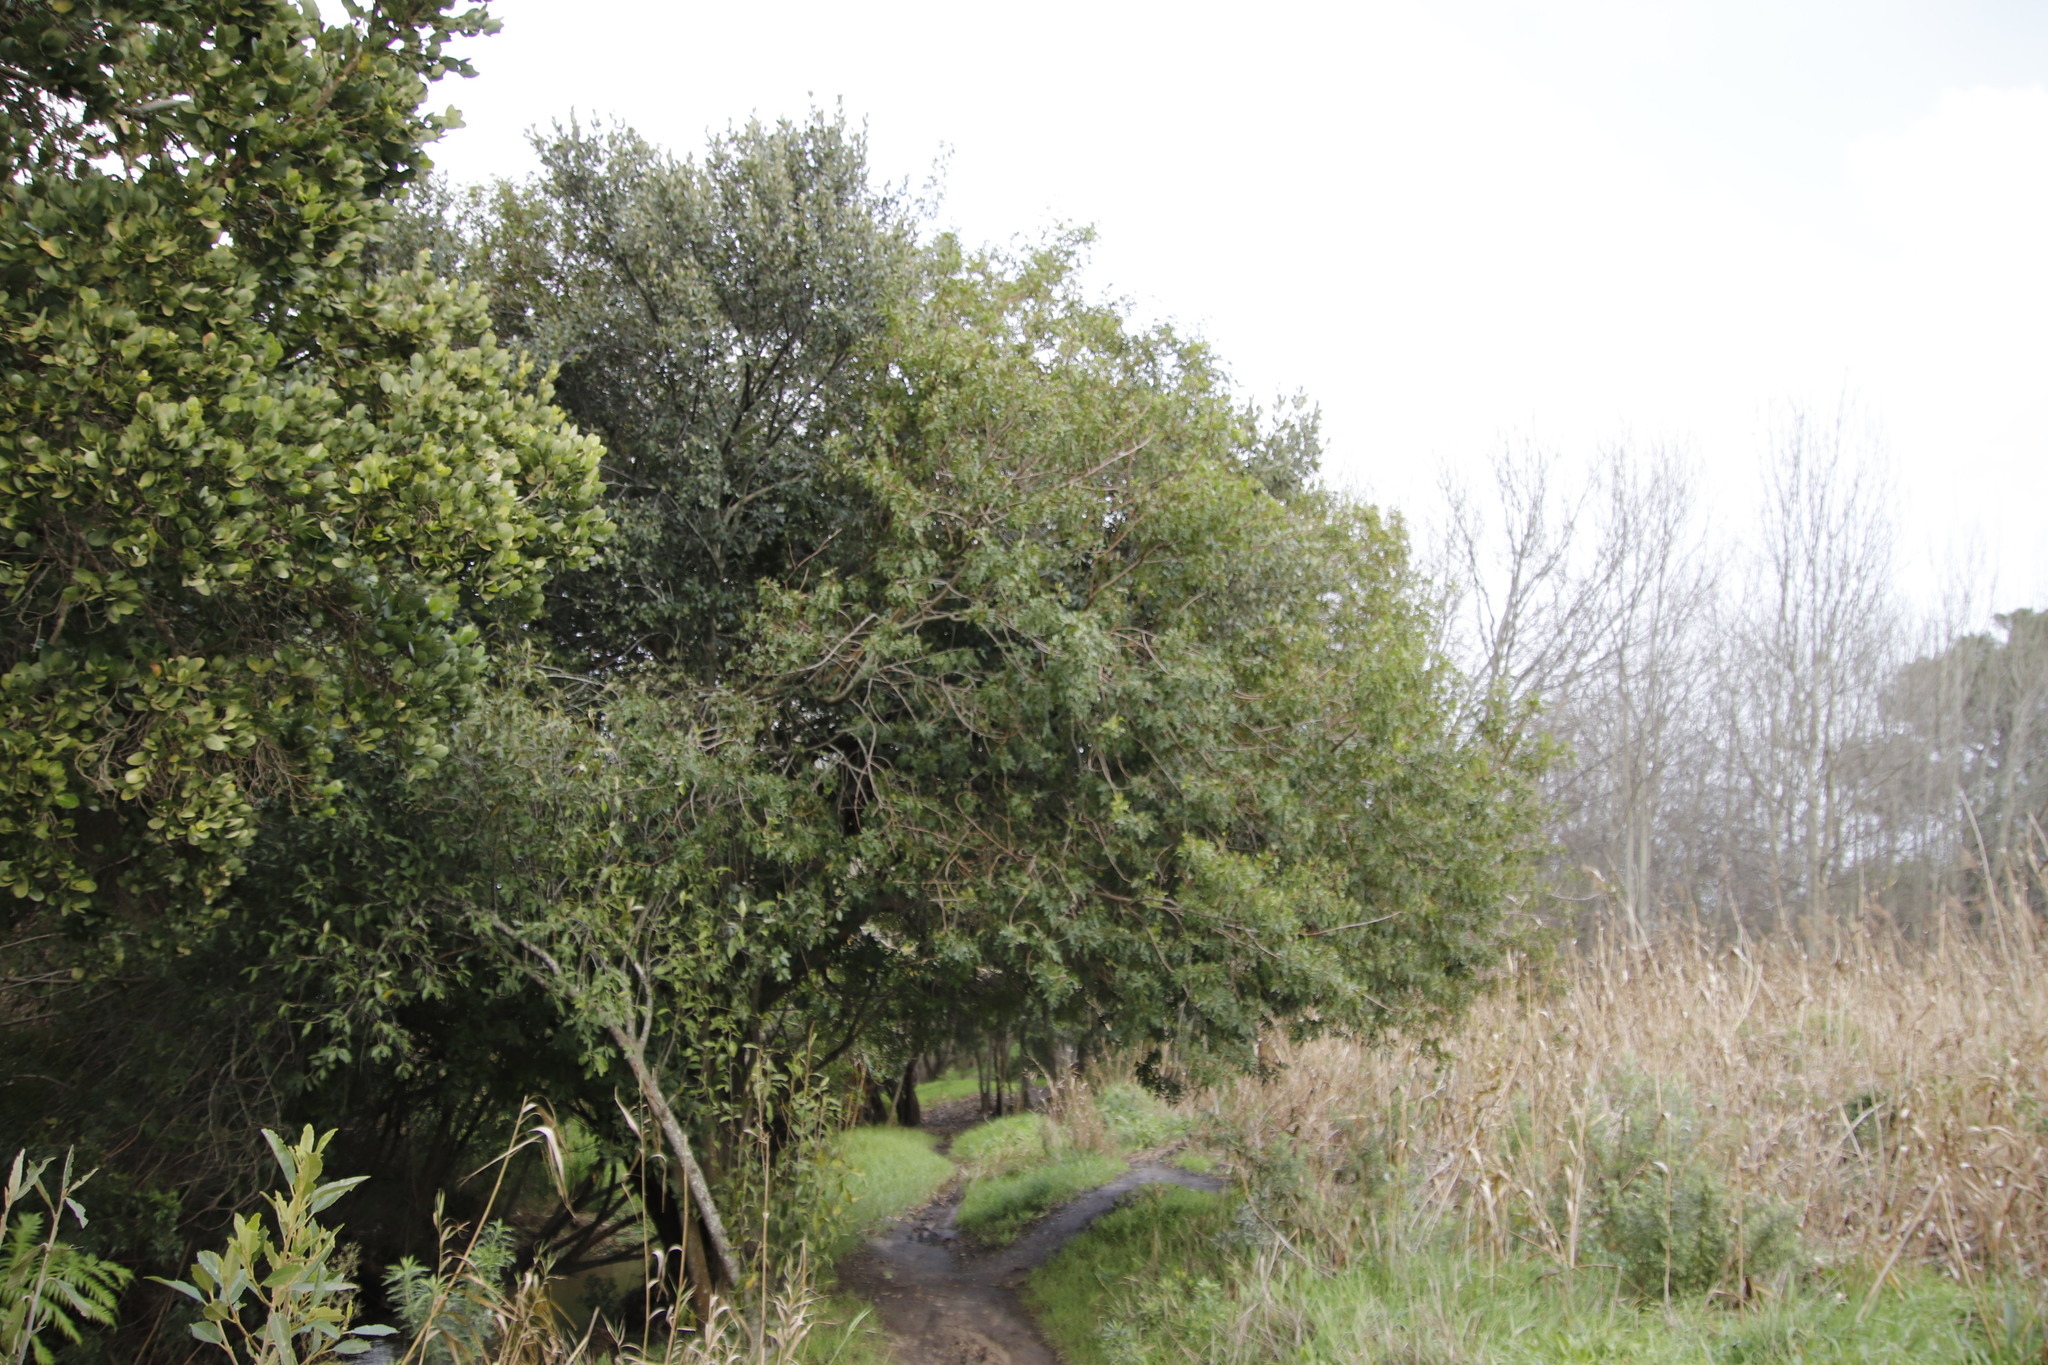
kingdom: Plantae
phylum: Tracheophyta
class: Magnoliopsida
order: Sapindales
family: Anacardiaceae
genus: Schinus
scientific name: Schinus terebinthifolia
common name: Brazilian peppertree
